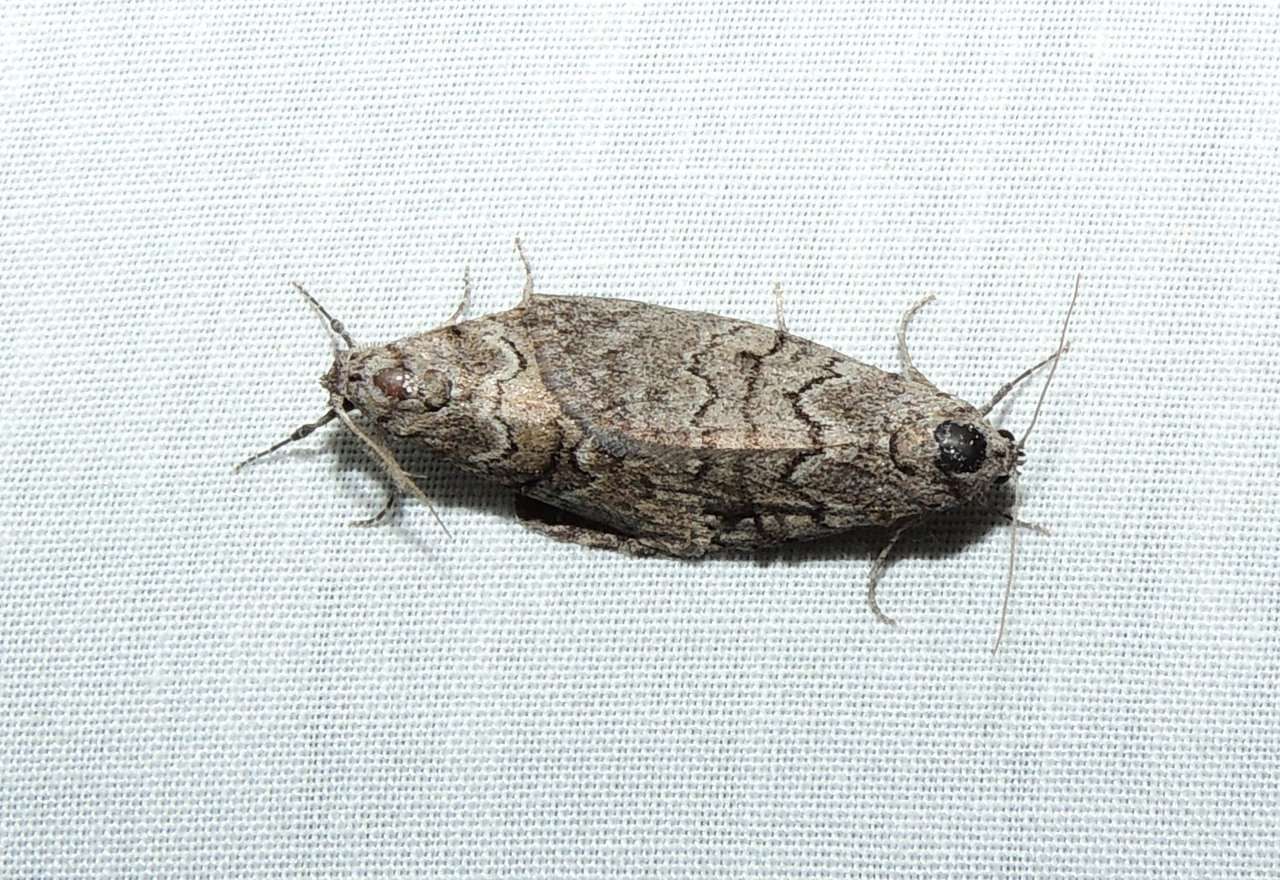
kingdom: Animalia
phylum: Arthropoda
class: Insecta
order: Lepidoptera
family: Nolidae
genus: Uraba
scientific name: Uraba lugens
